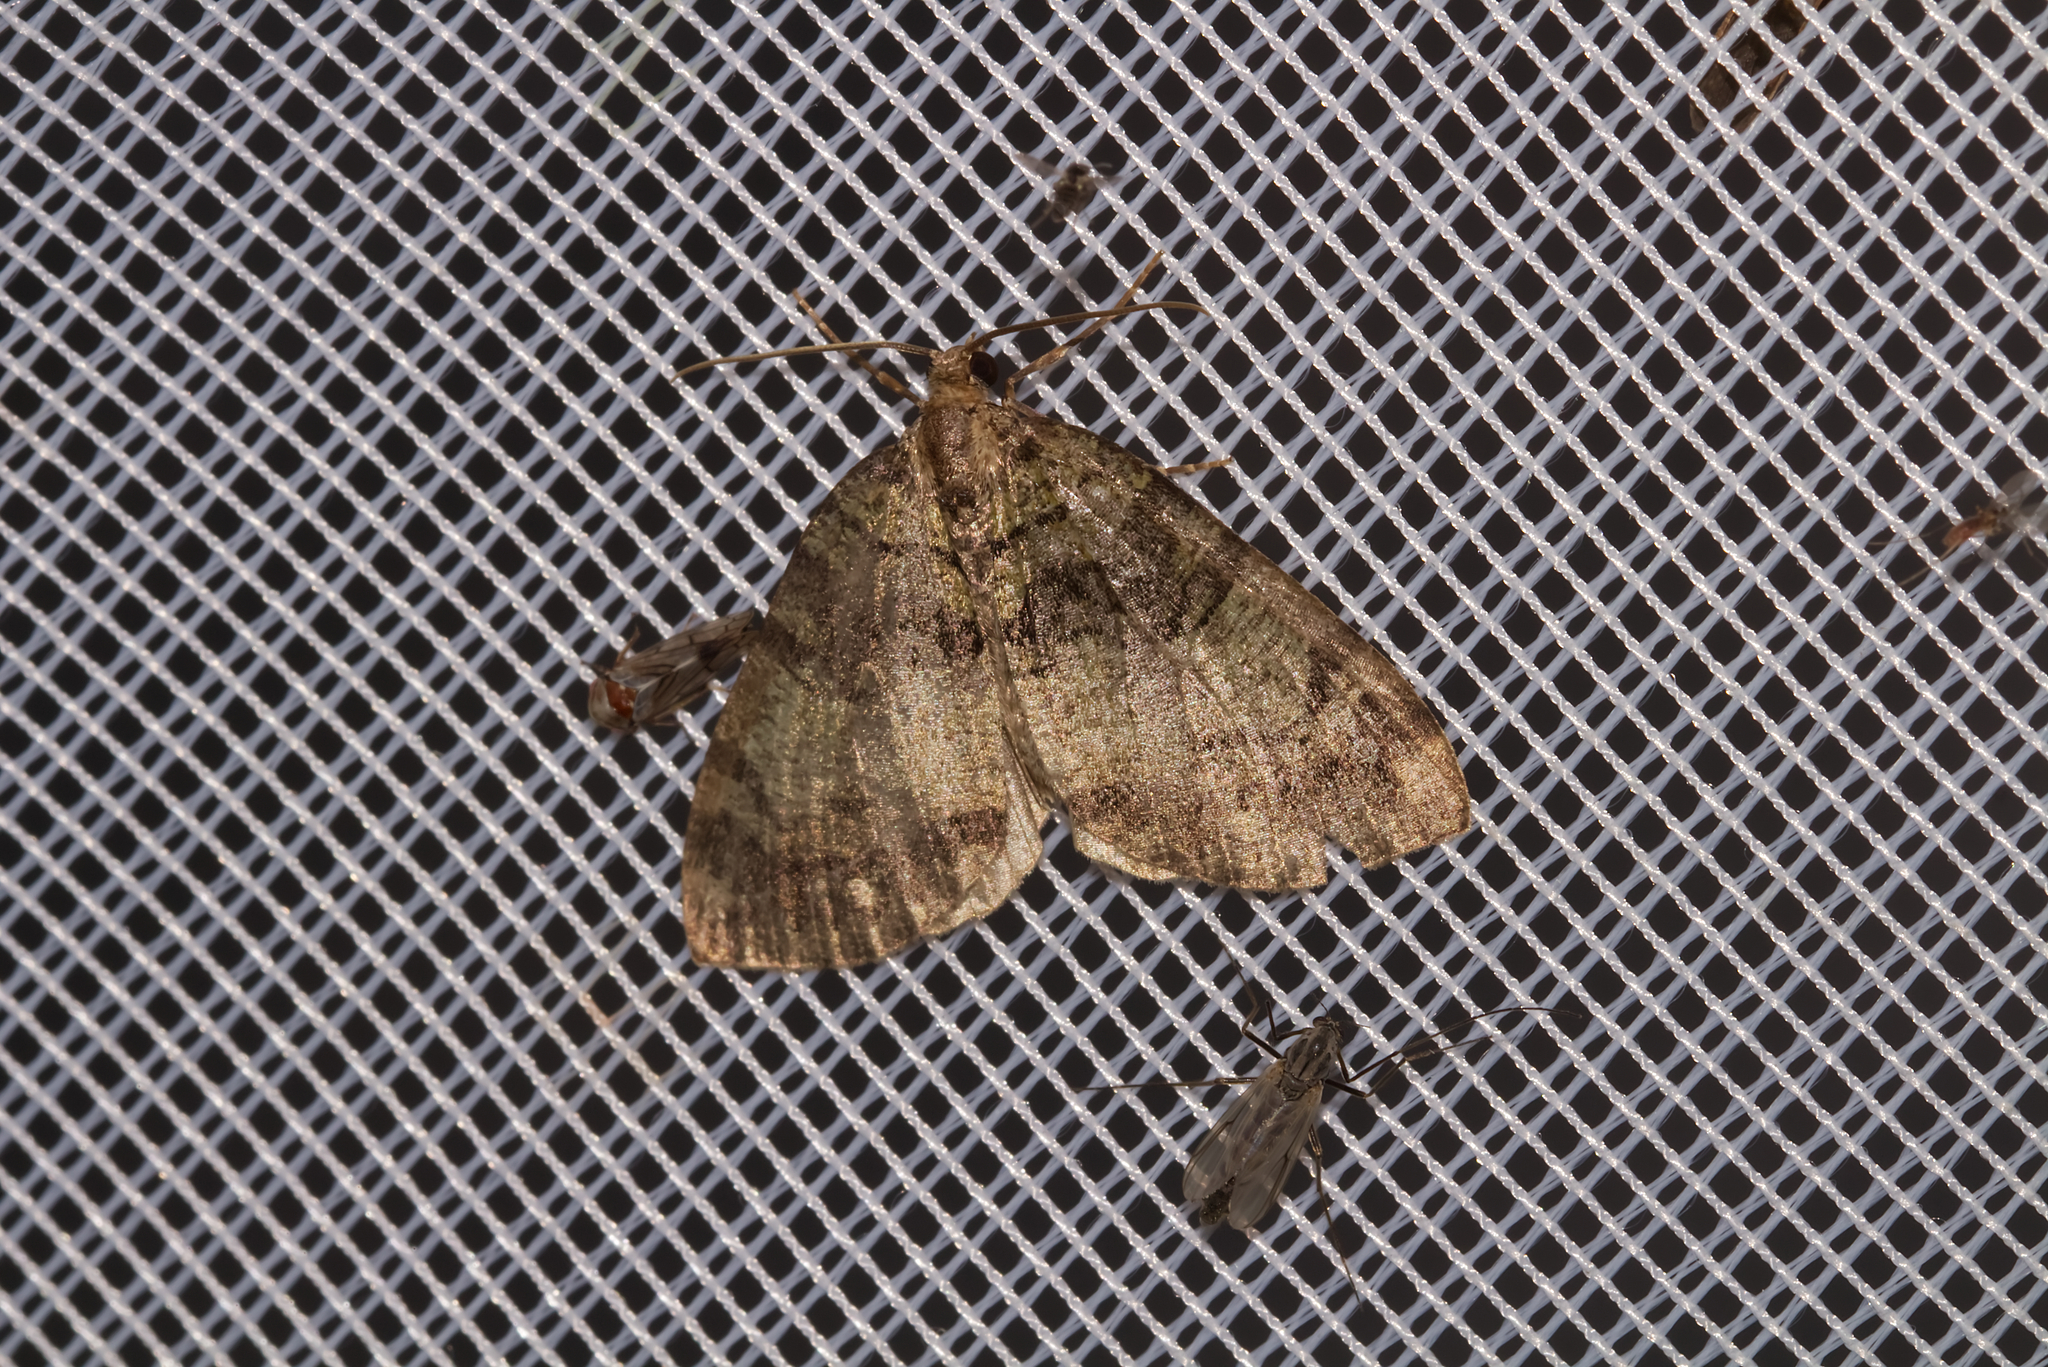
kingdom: Animalia
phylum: Arthropoda
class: Insecta
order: Lepidoptera
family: Geometridae
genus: Hydriomena
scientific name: Hydriomena furcata
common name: July highflyer
